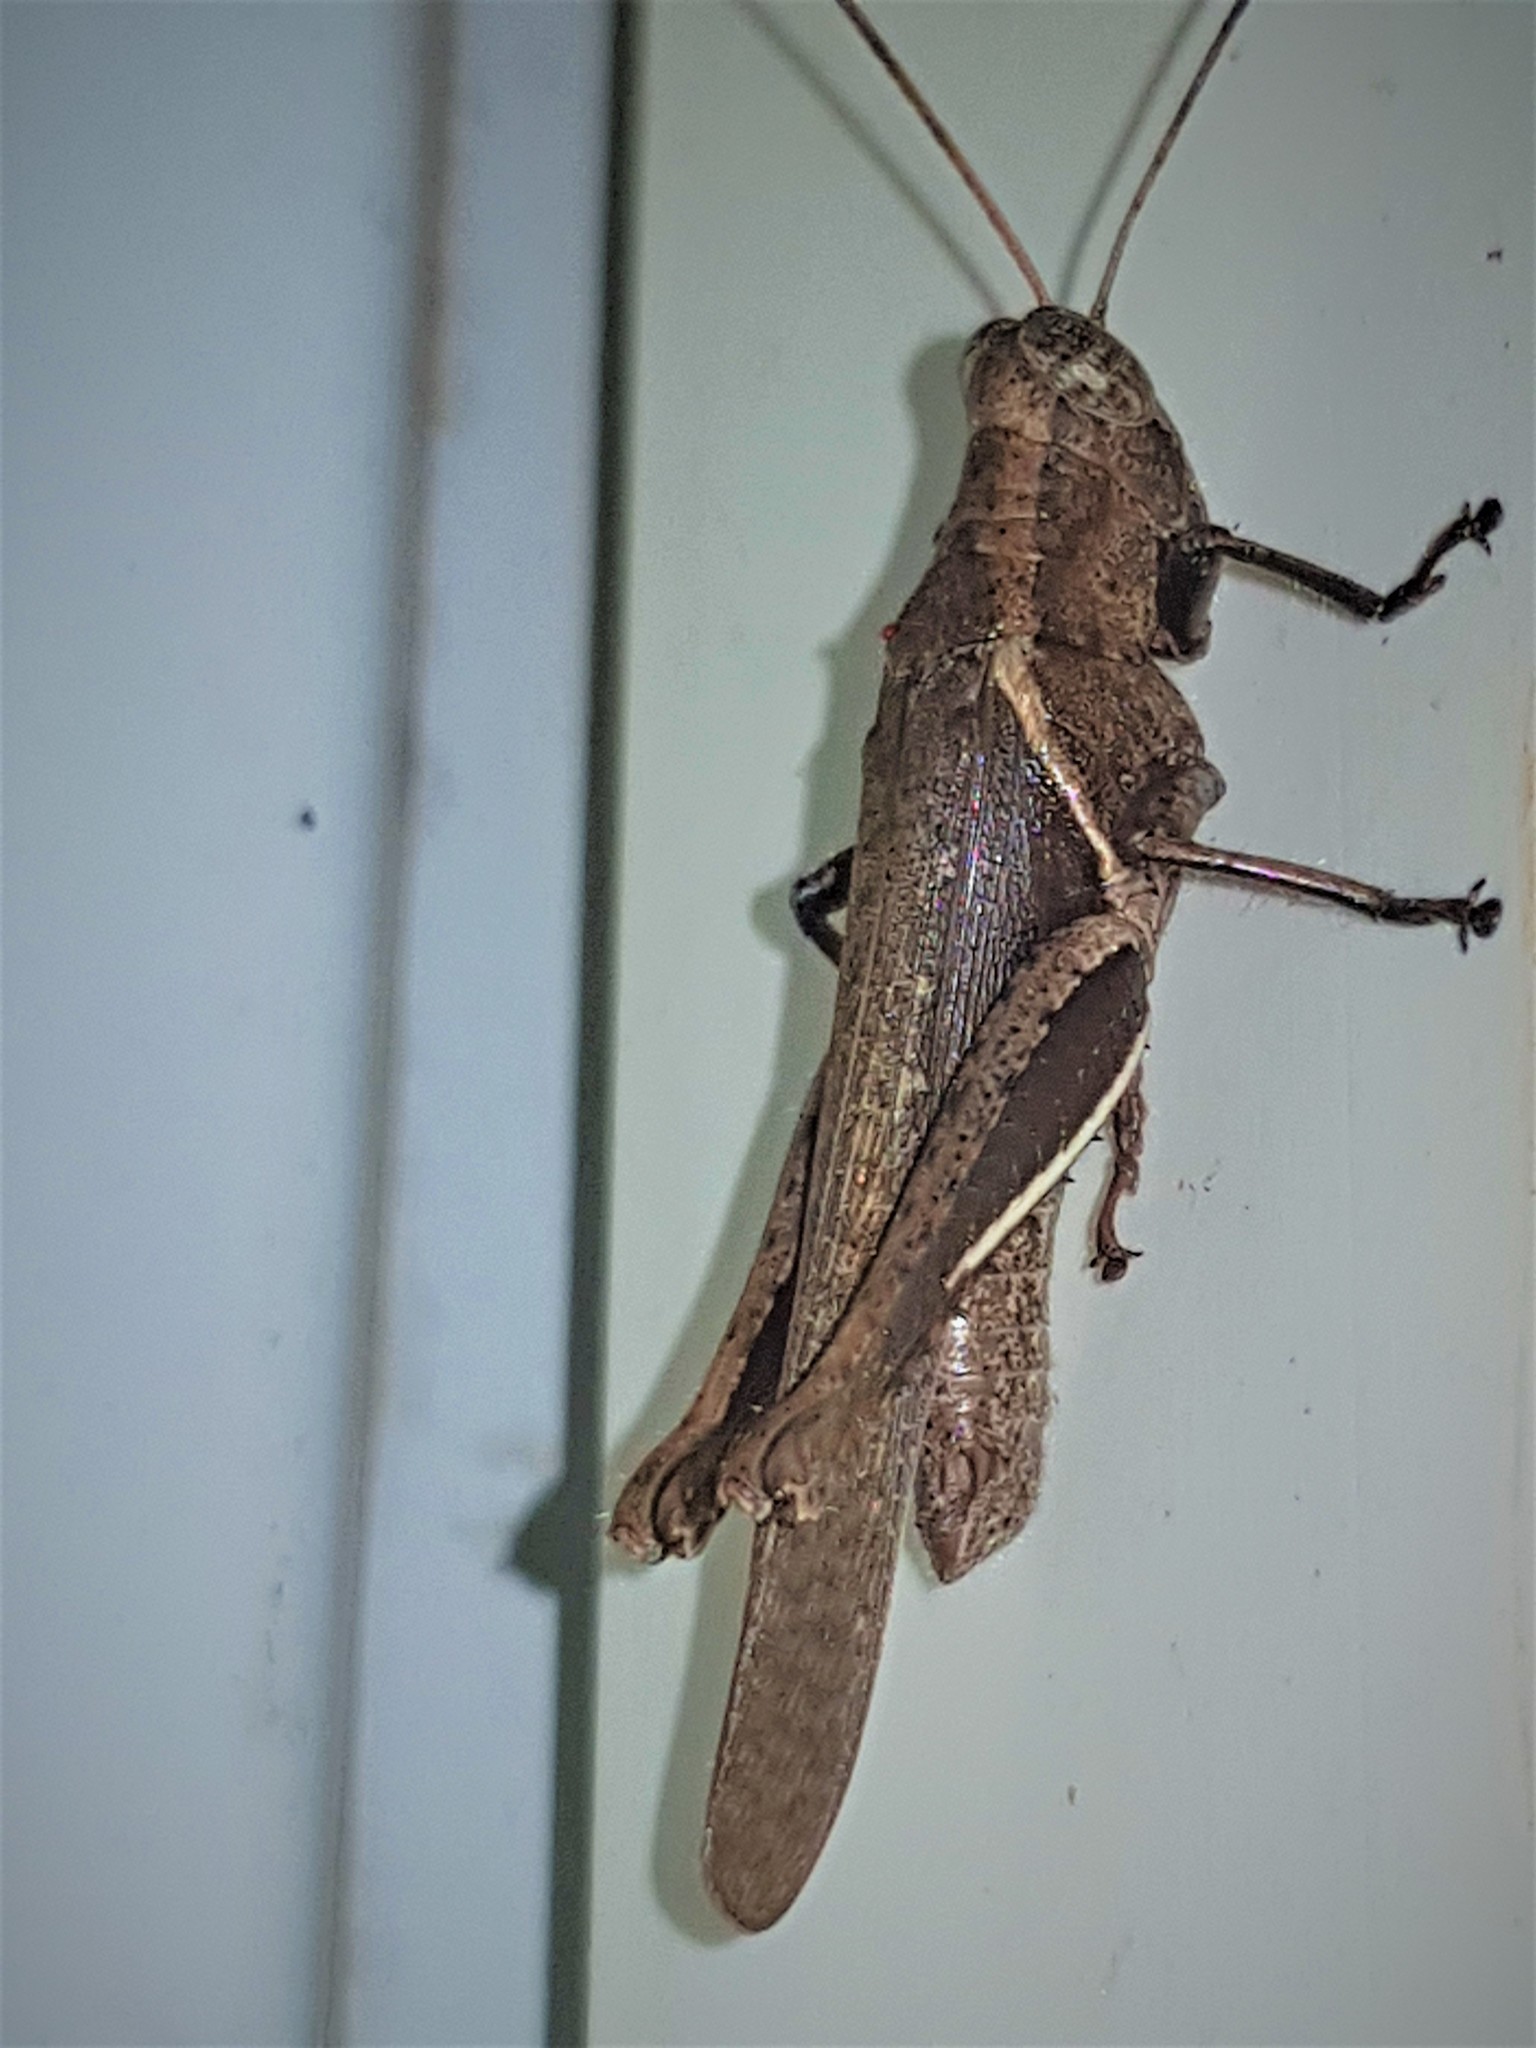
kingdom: Animalia
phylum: Arthropoda
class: Insecta
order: Orthoptera
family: Acrididae
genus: Abracris
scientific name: Abracris flavolineata
